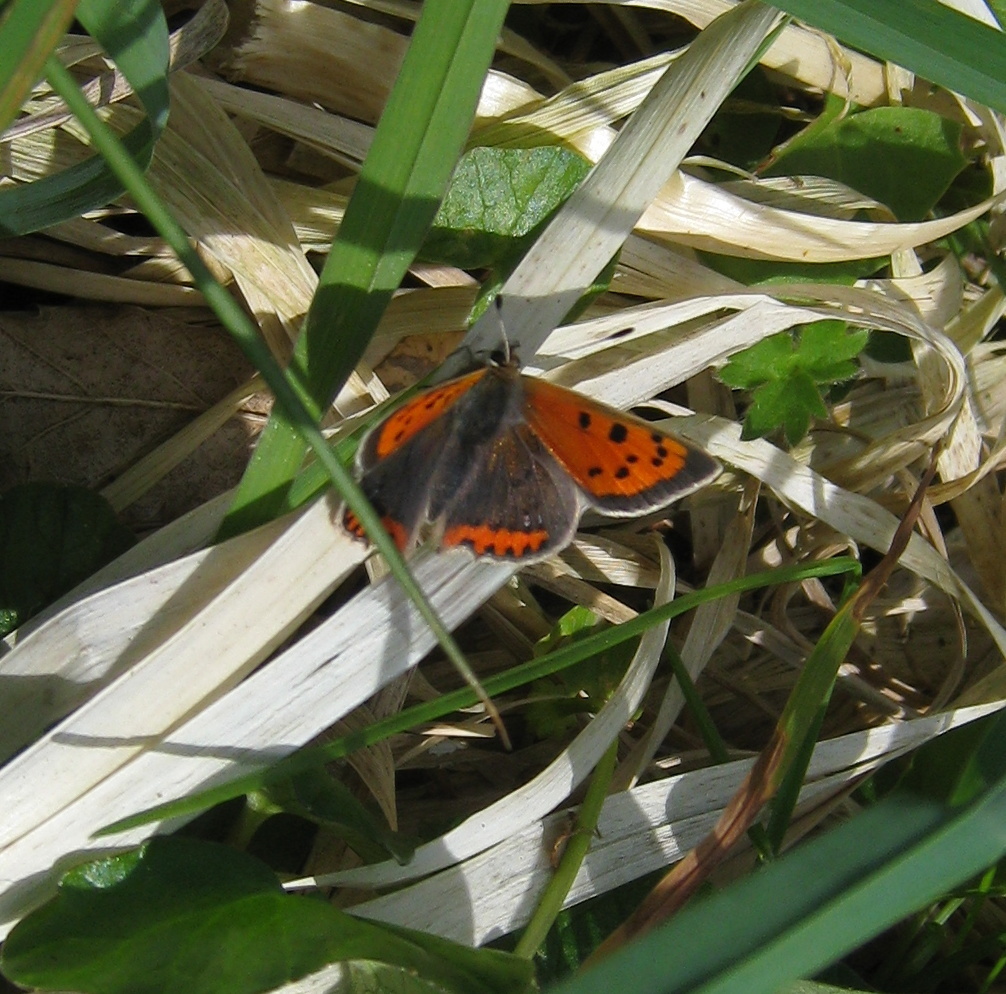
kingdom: Animalia
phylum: Arthropoda
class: Insecta
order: Lepidoptera
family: Lycaenidae
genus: Lycaena
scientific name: Lycaena phlaeas
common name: Small copper
